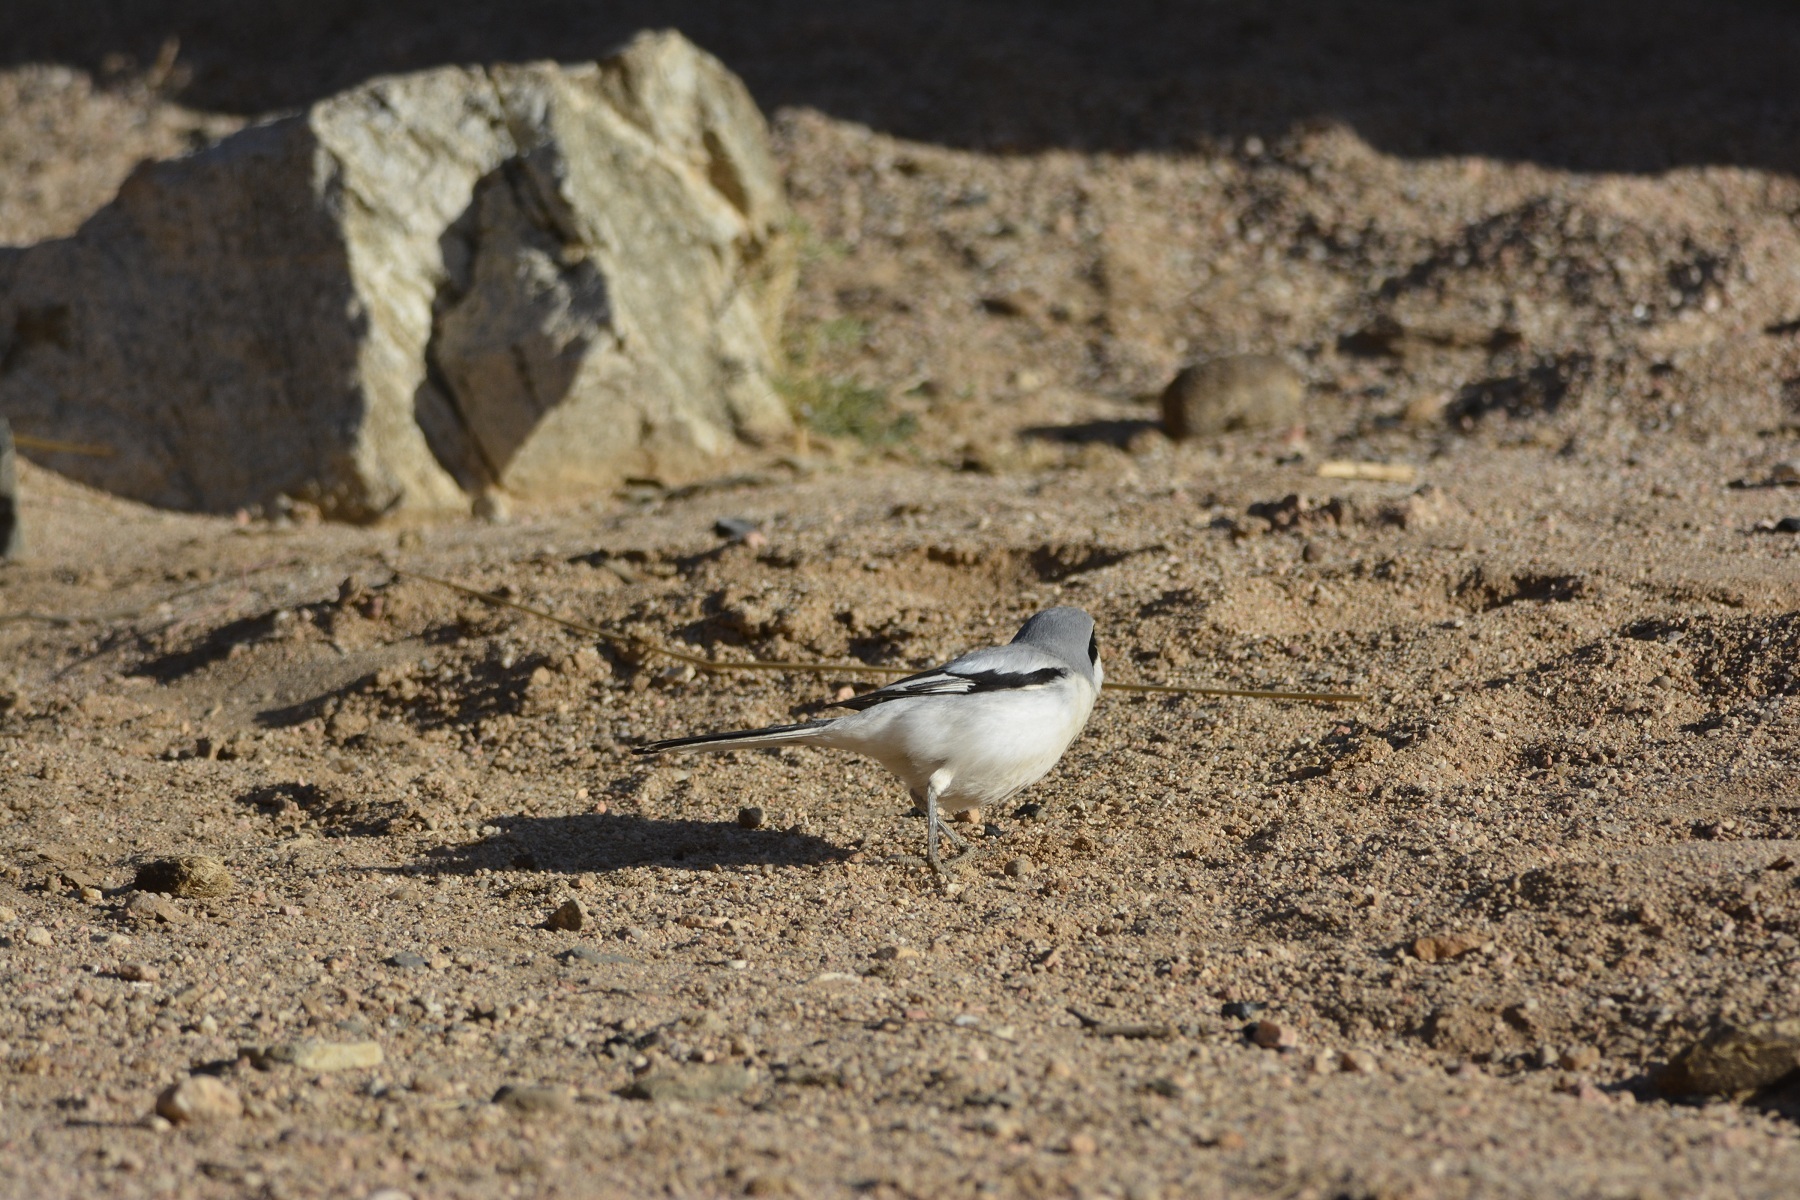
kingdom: Animalia
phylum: Chordata
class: Aves
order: Passeriformes
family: Laniidae
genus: Lanius
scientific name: Lanius excubitor
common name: Great grey shrike
